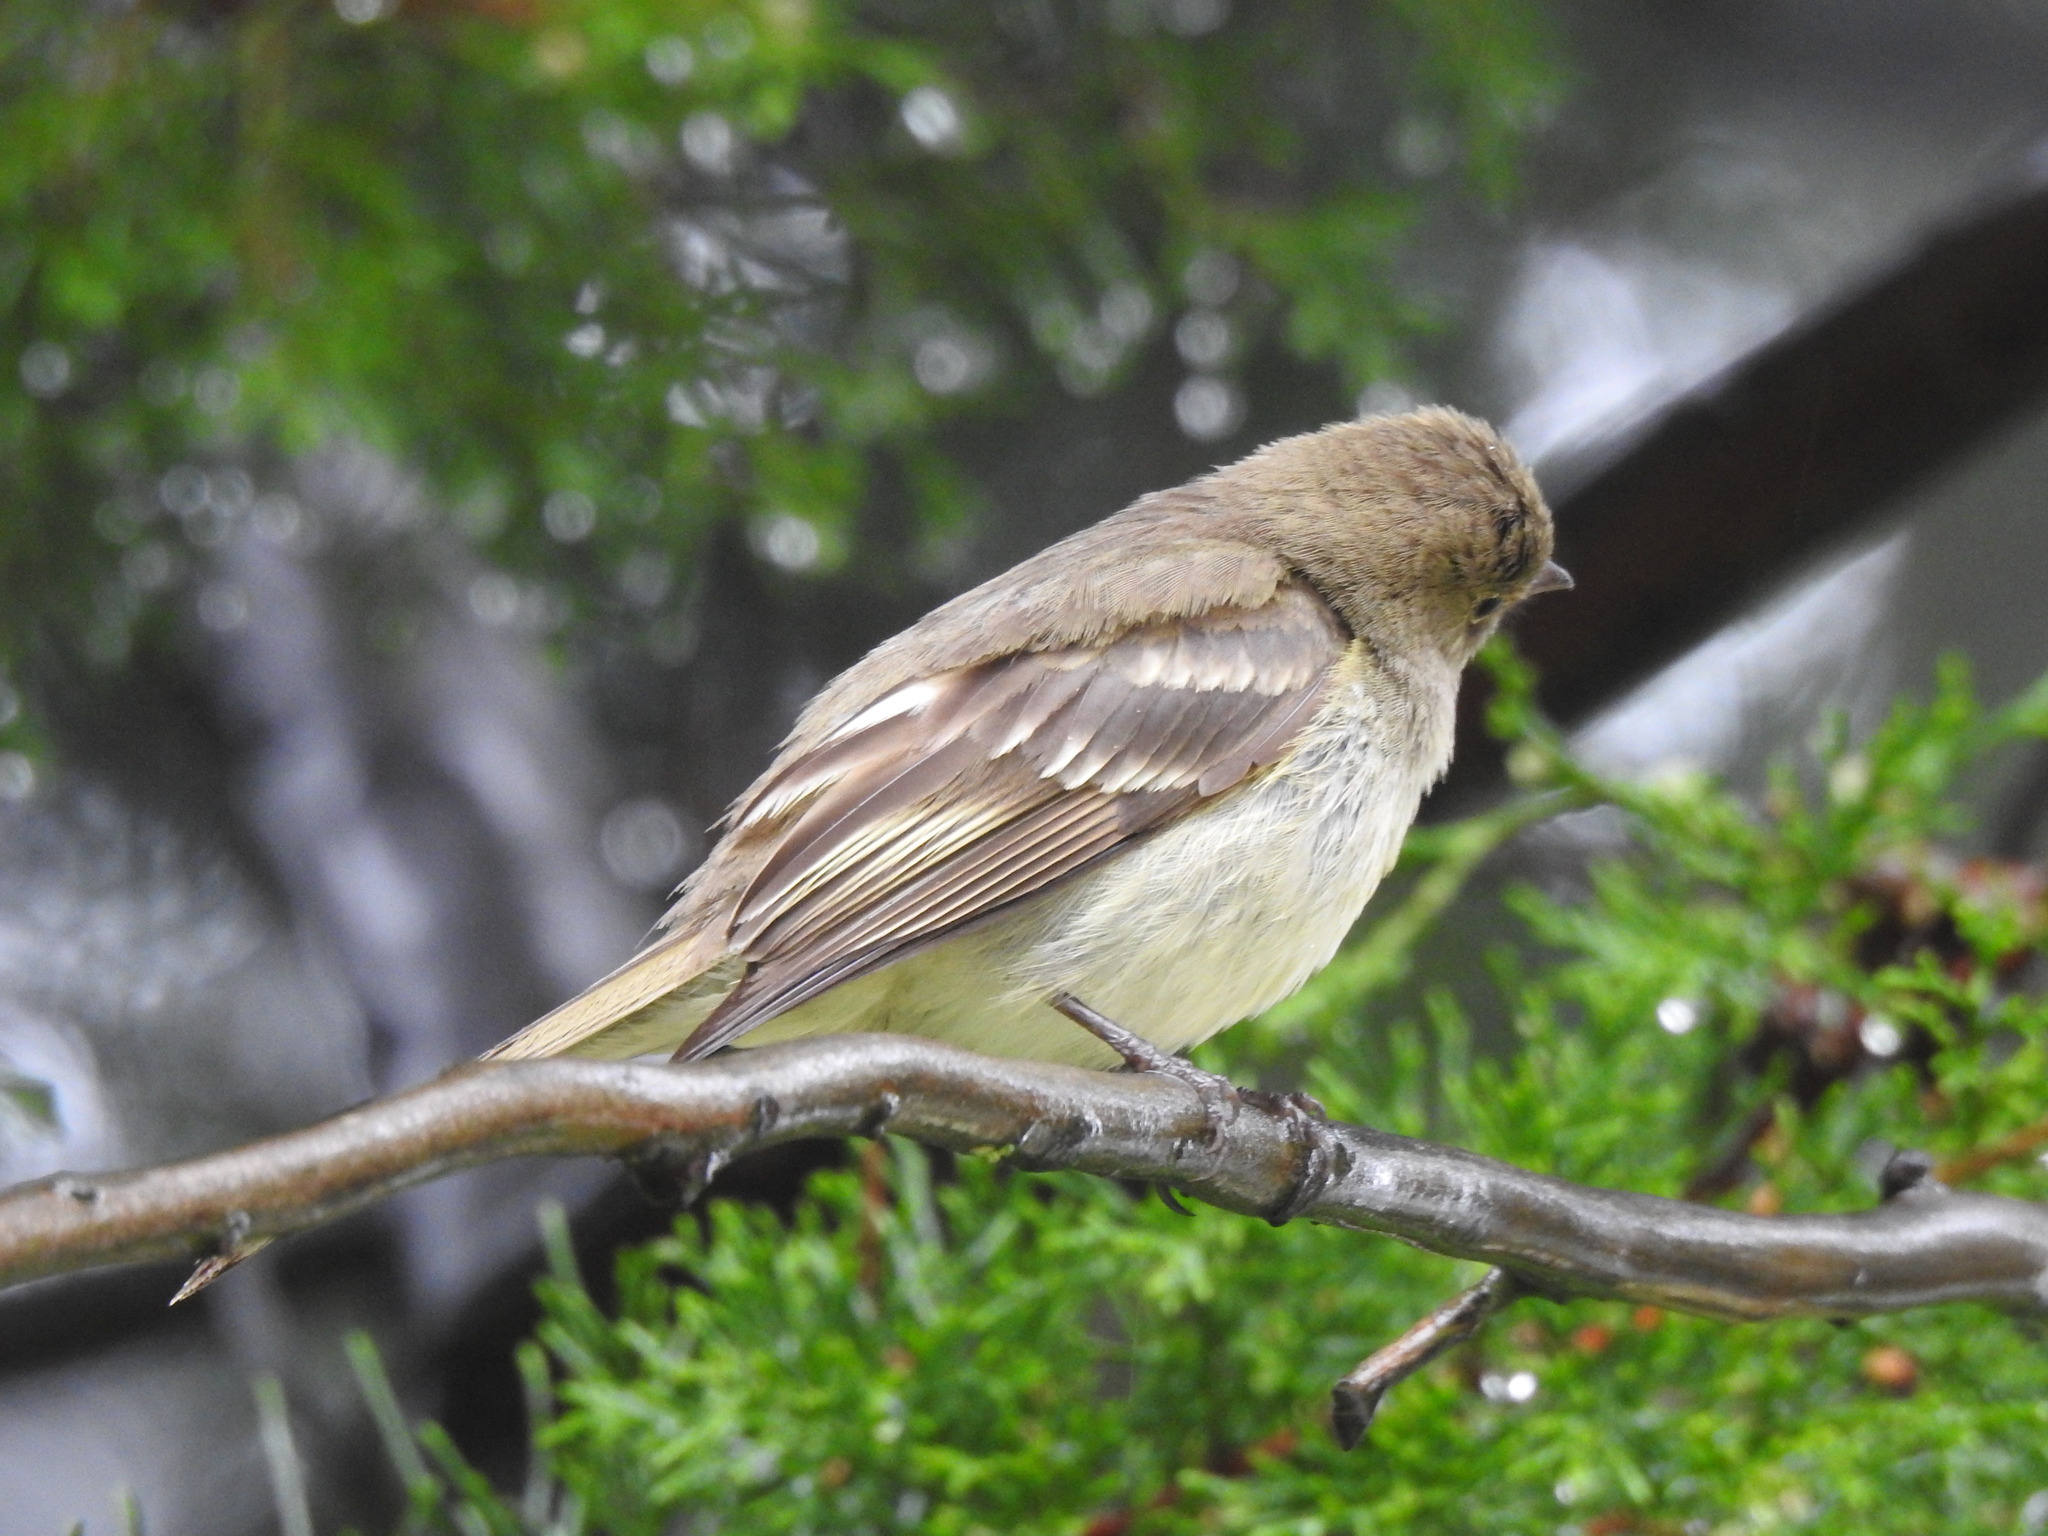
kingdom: Animalia
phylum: Chordata
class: Aves
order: Passeriformes
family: Tyrannidae
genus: Elaenia
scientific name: Elaenia frantzii
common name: Mountain elaenia
